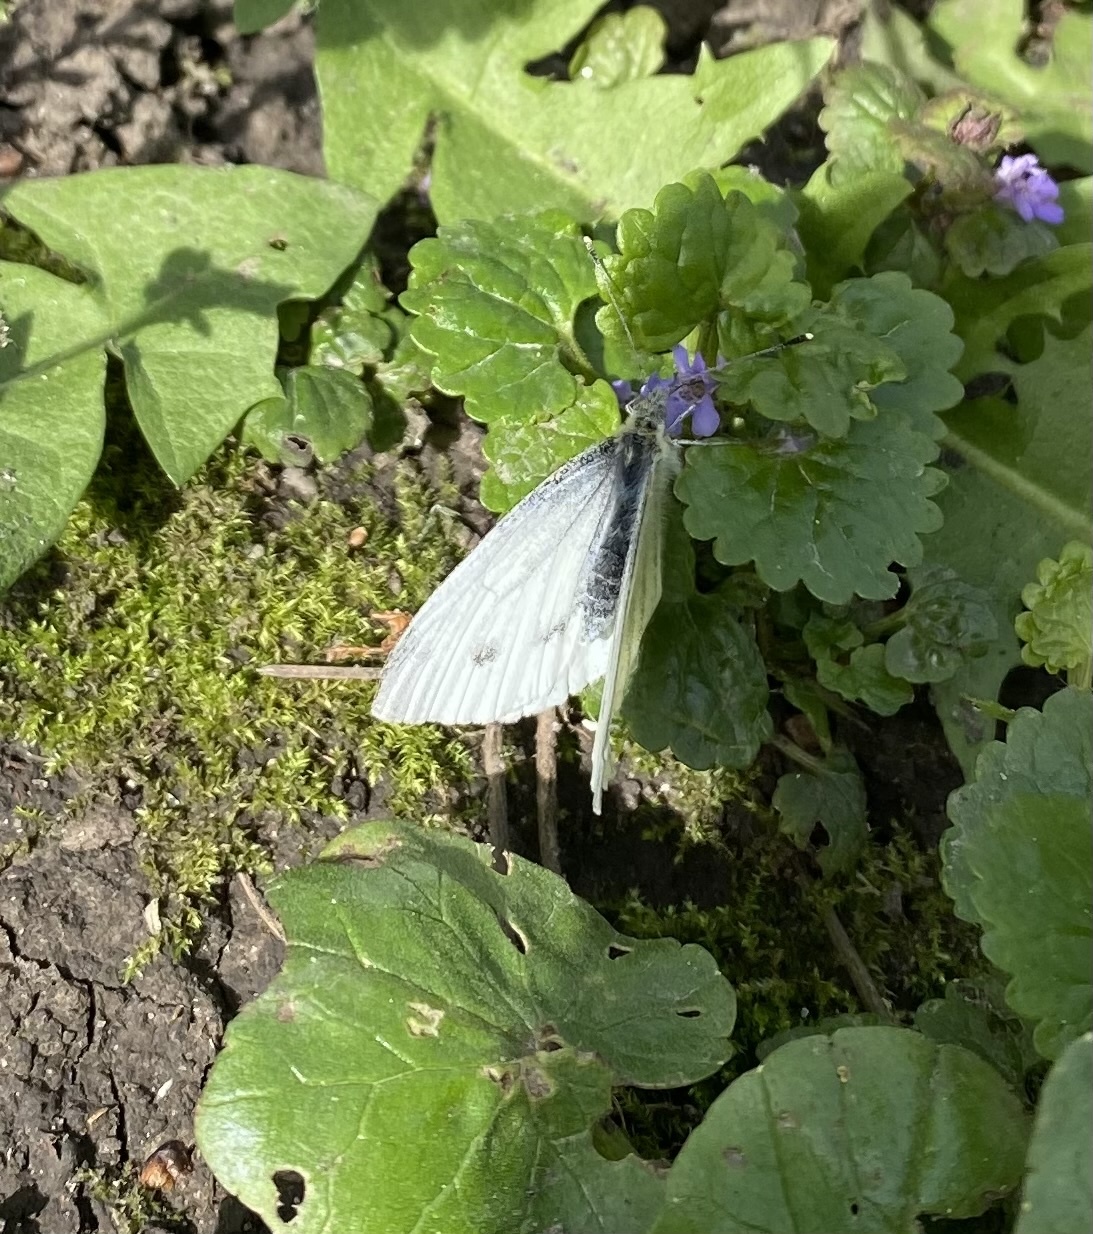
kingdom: Animalia
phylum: Arthropoda
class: Insecta
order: Lepidoptera
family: Pieridae
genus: Pieris
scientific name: Pieris napi
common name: Green-veined white
